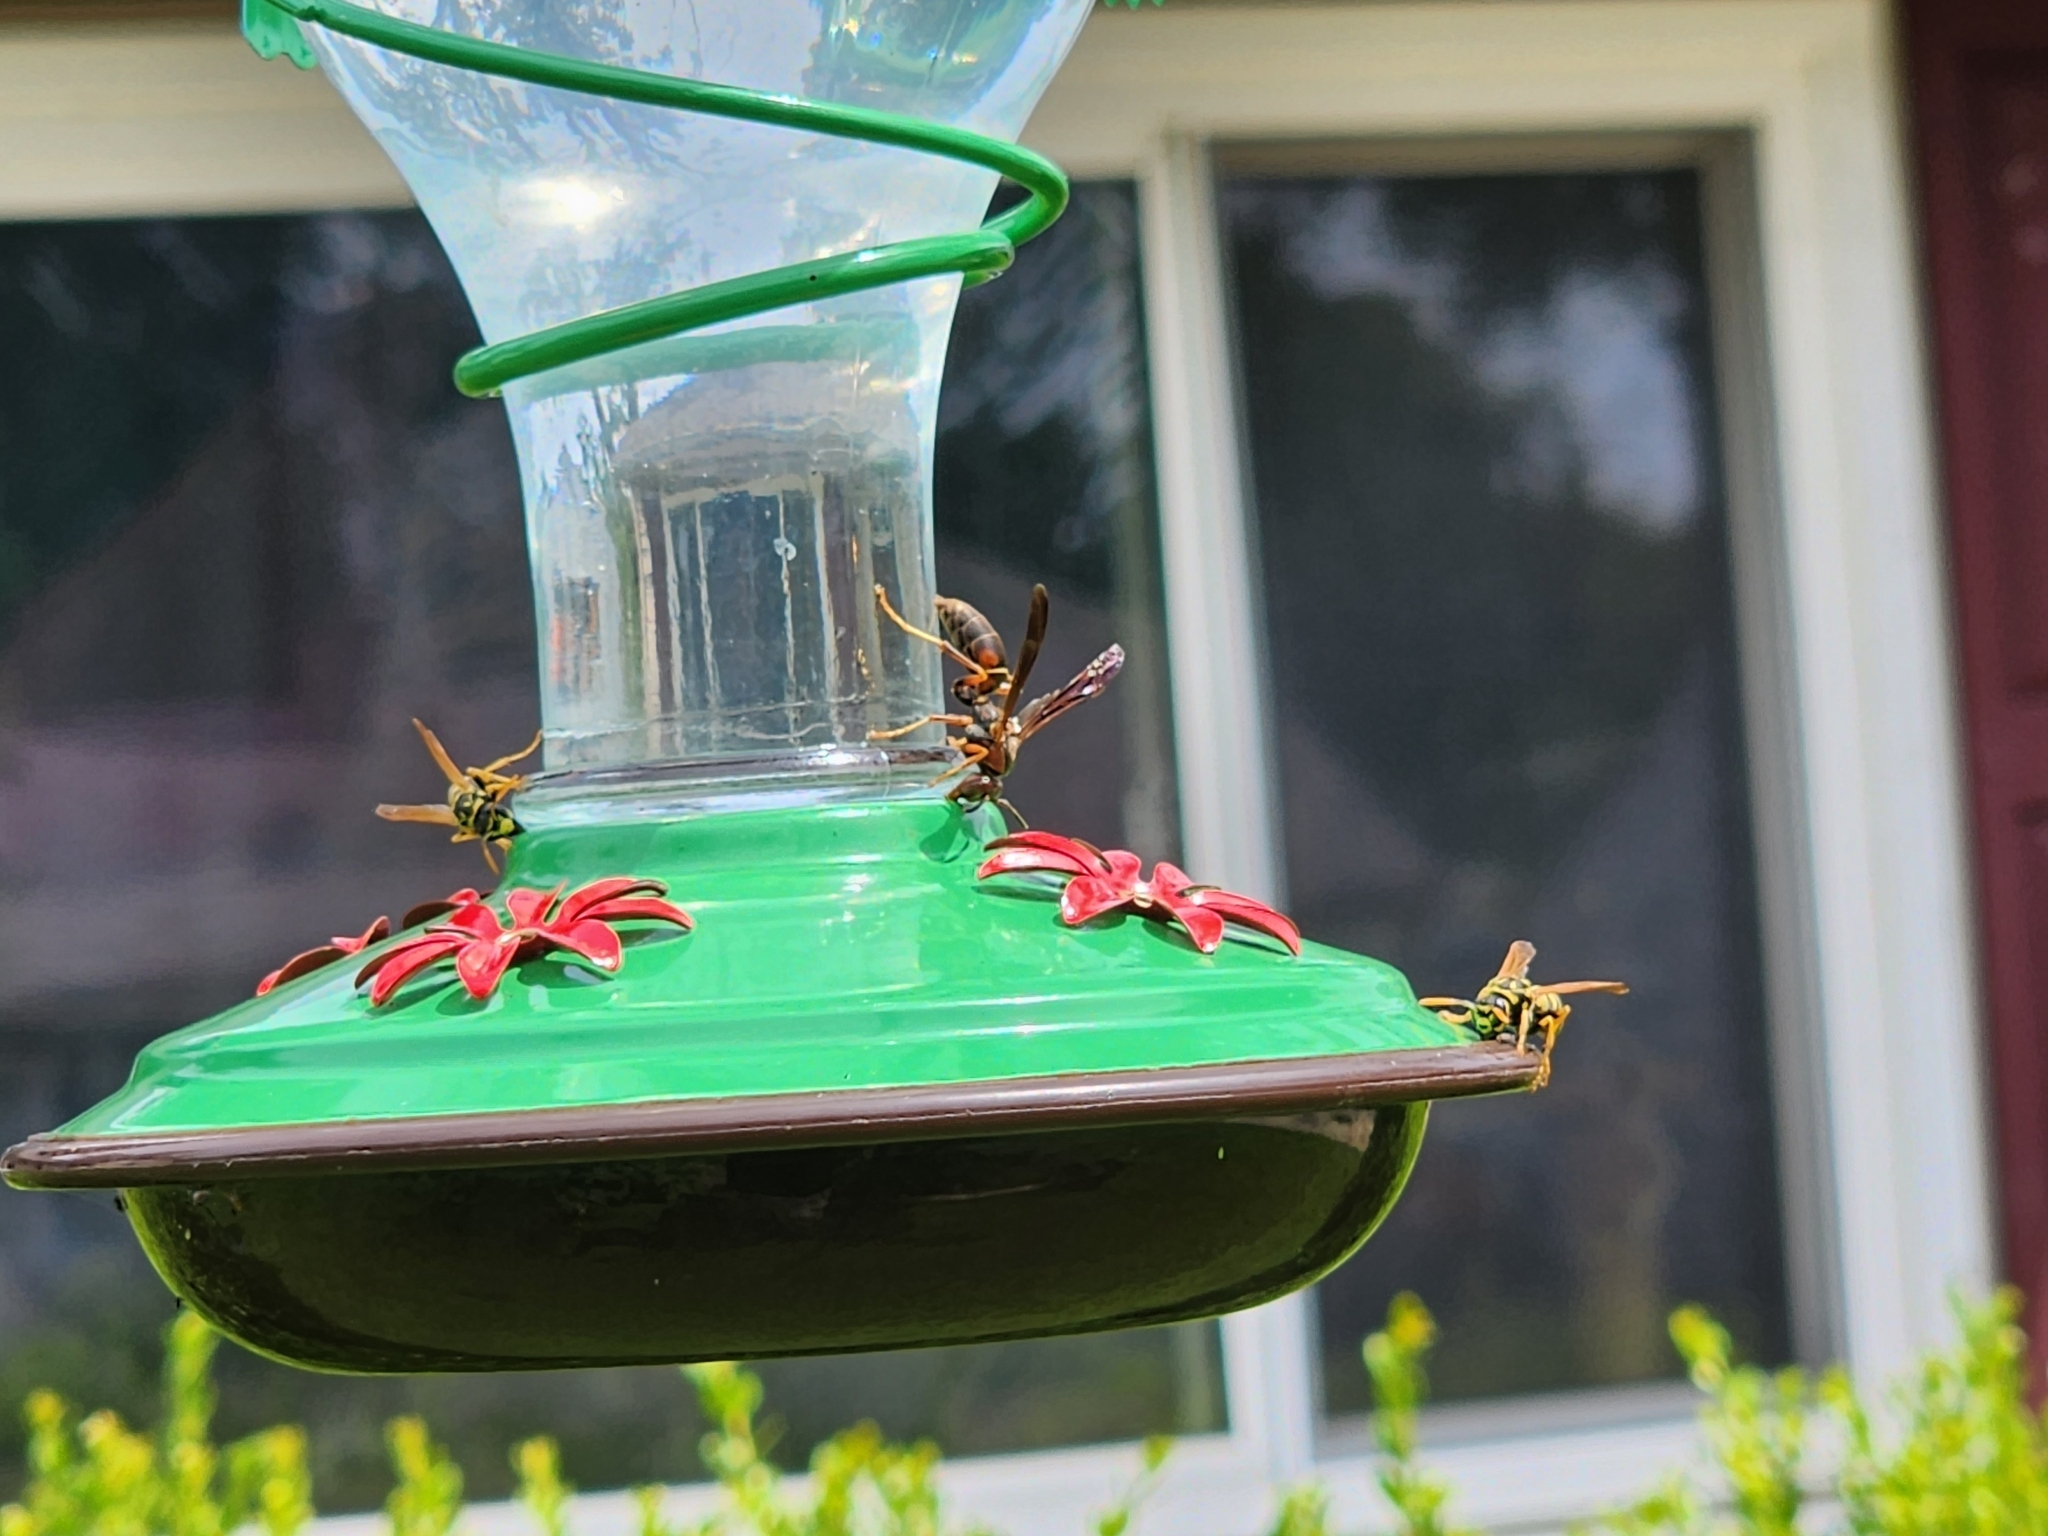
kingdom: Animalia
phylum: Arthropoda
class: Insecta
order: Hymenoptera
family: Eumenidae
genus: Polistes
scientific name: Polistes fuscatus
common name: Dark paper wasp
